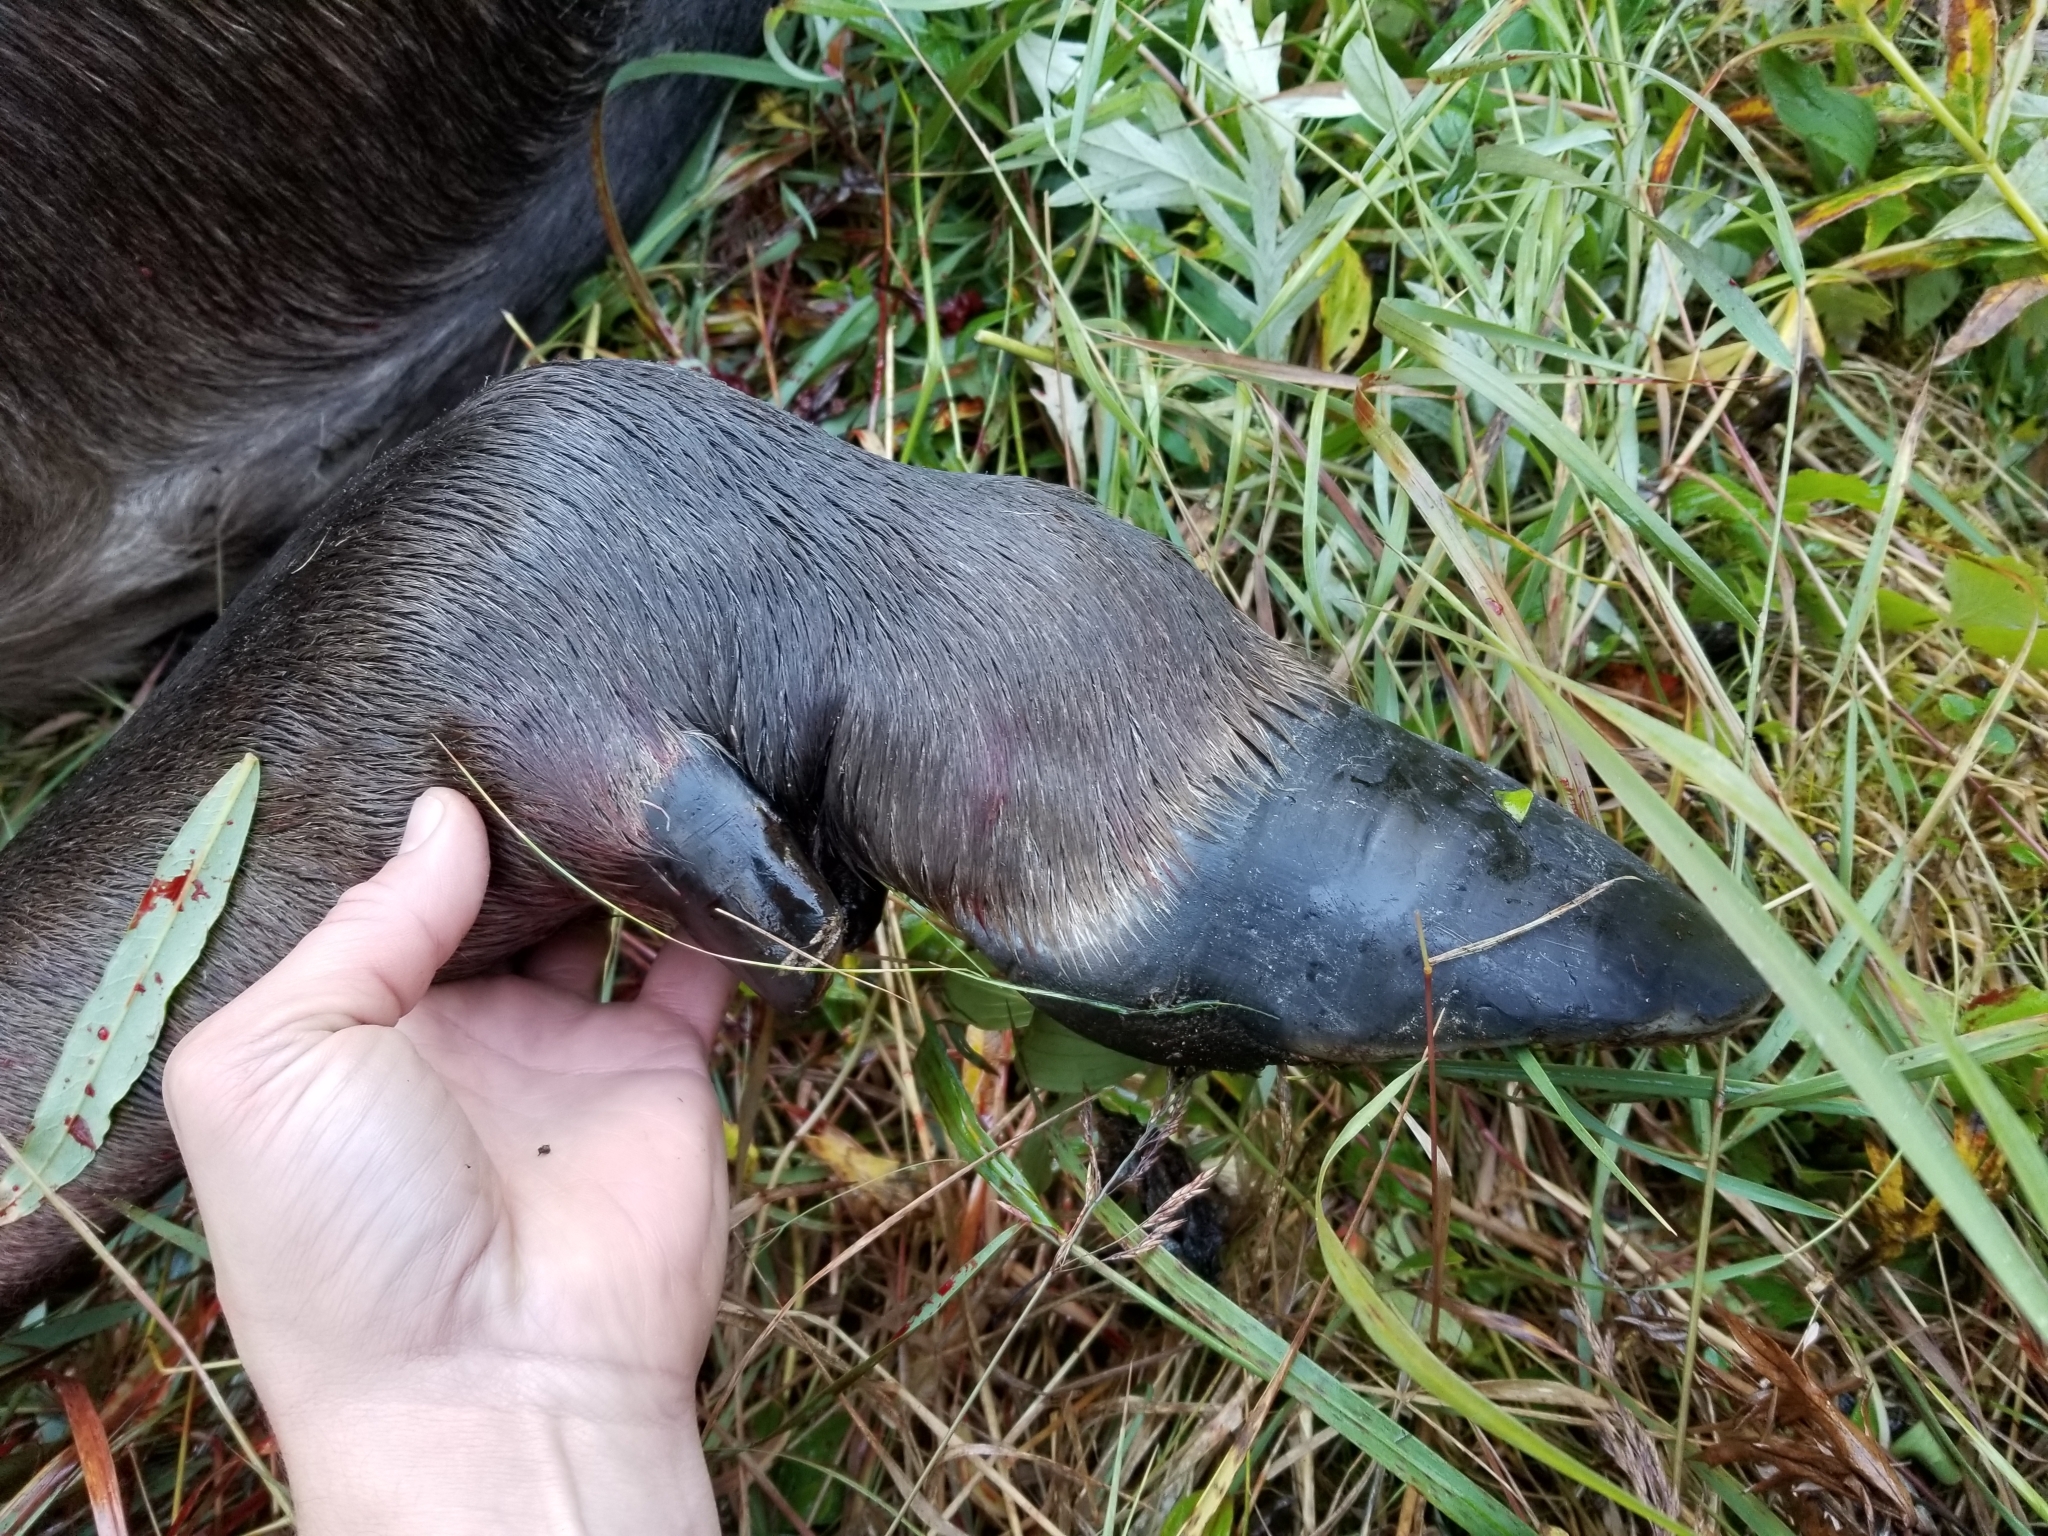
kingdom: Animalia
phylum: Chordata
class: Mammalia
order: Artiodactyla
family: Cervidae
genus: Alces
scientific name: Alces americanus
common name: Moose
